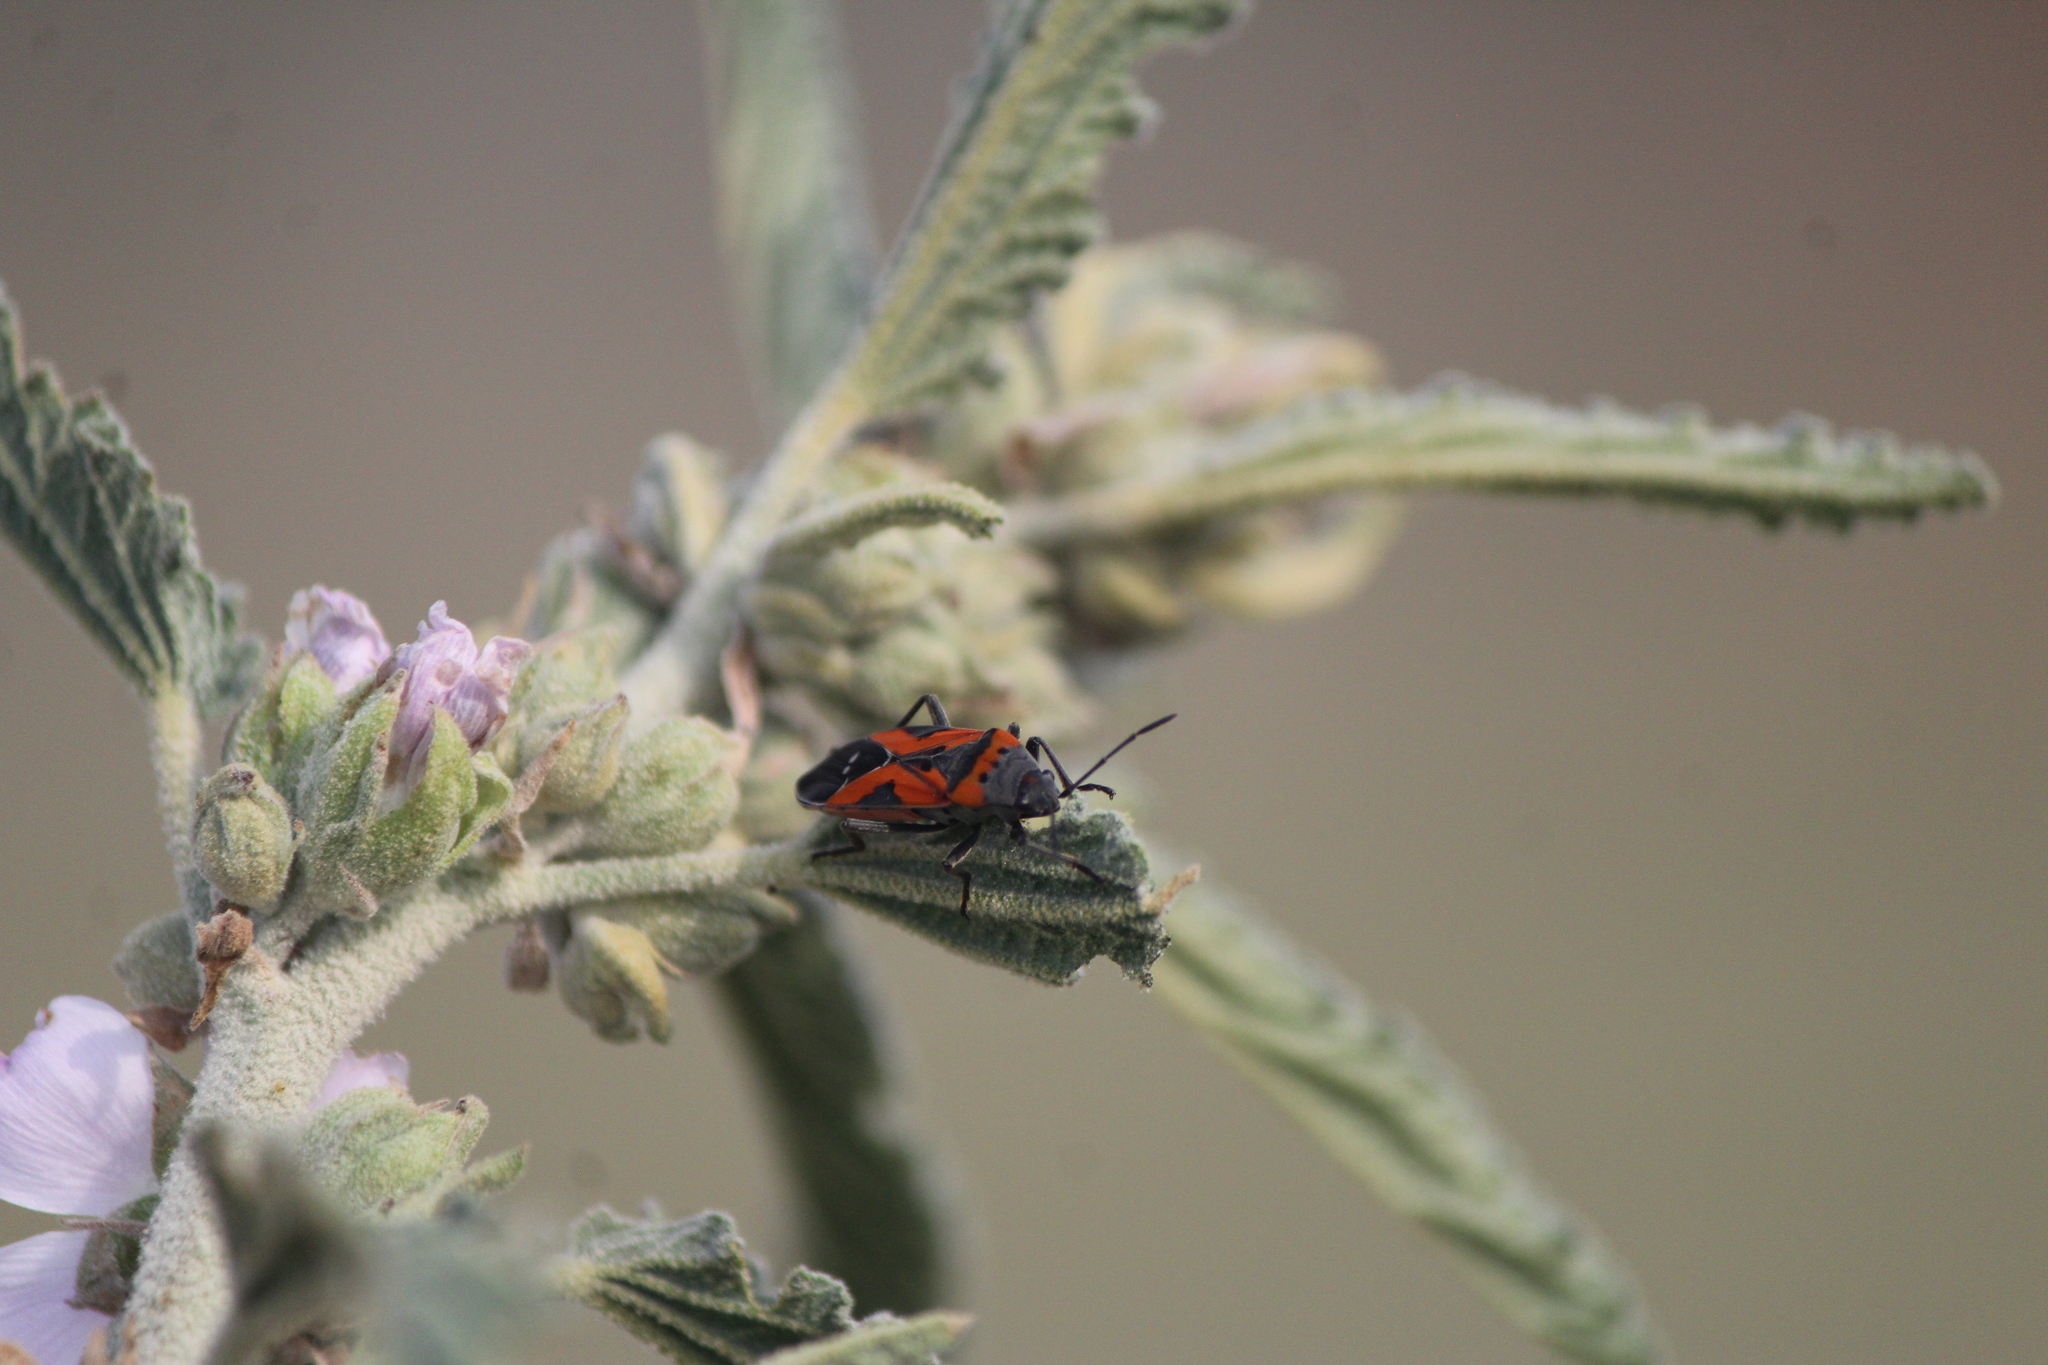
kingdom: Animalia
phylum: Arthropoda
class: Insecta
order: Hemiptera
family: Lygaeidae
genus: Lygaeus
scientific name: Lygaeus reclivatus
